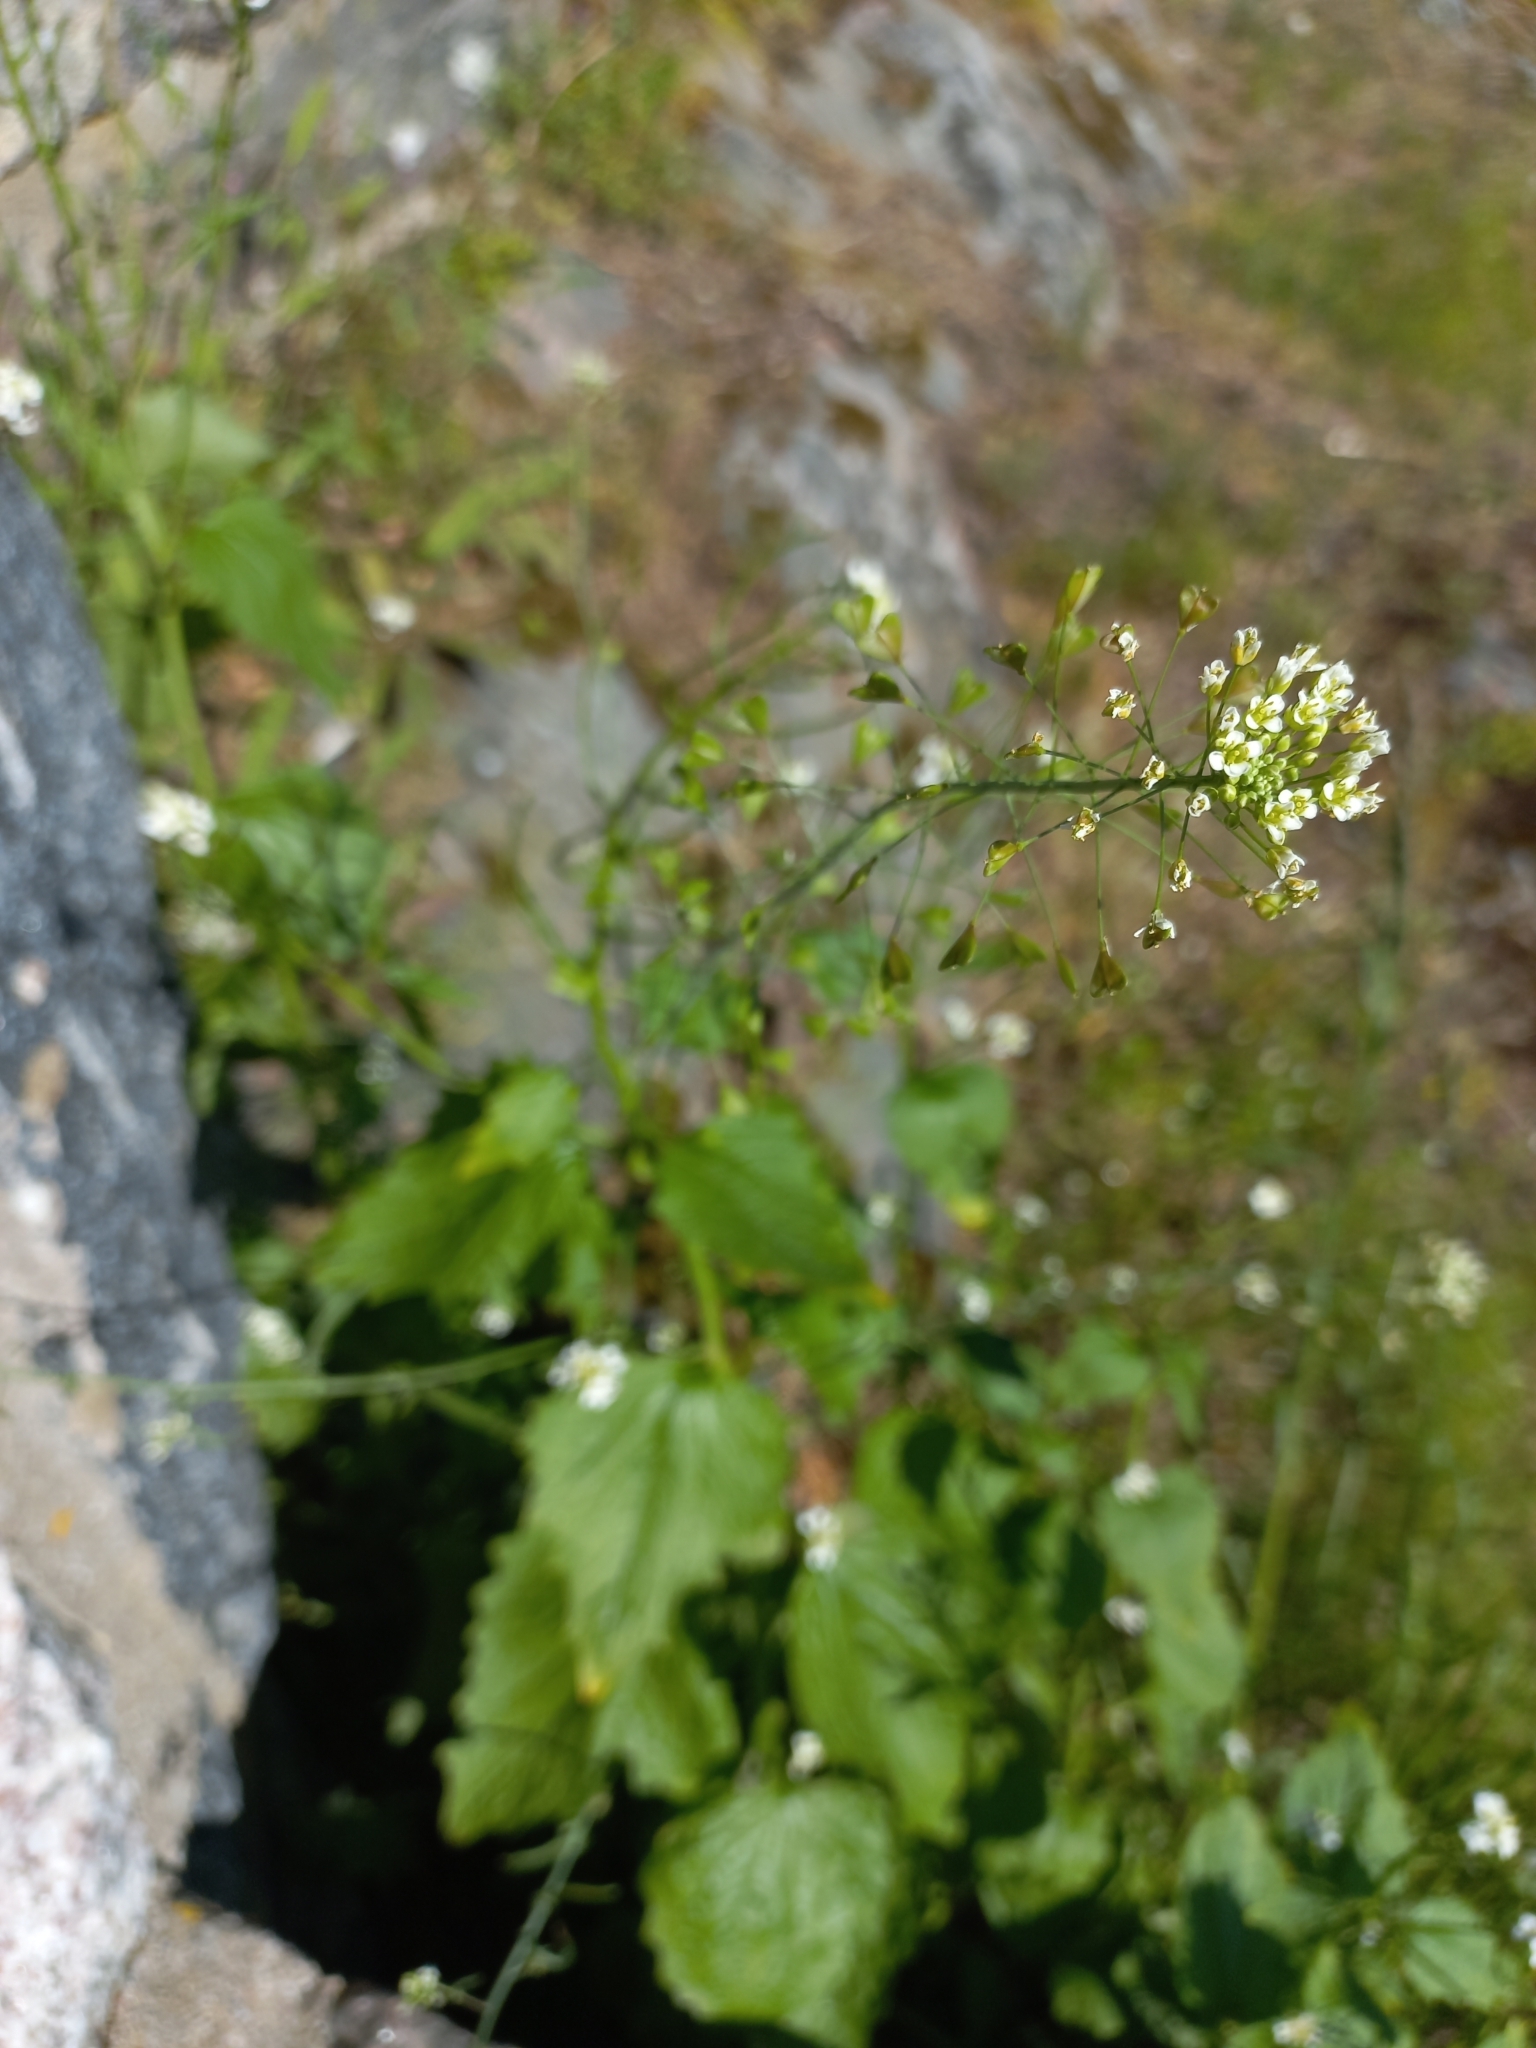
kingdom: Plantae
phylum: Tracheophyta
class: Magnoliopsida
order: Brassicales
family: Brassicaceae
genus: Alliaria
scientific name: Alliaria petiolata
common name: Garlic mustard
